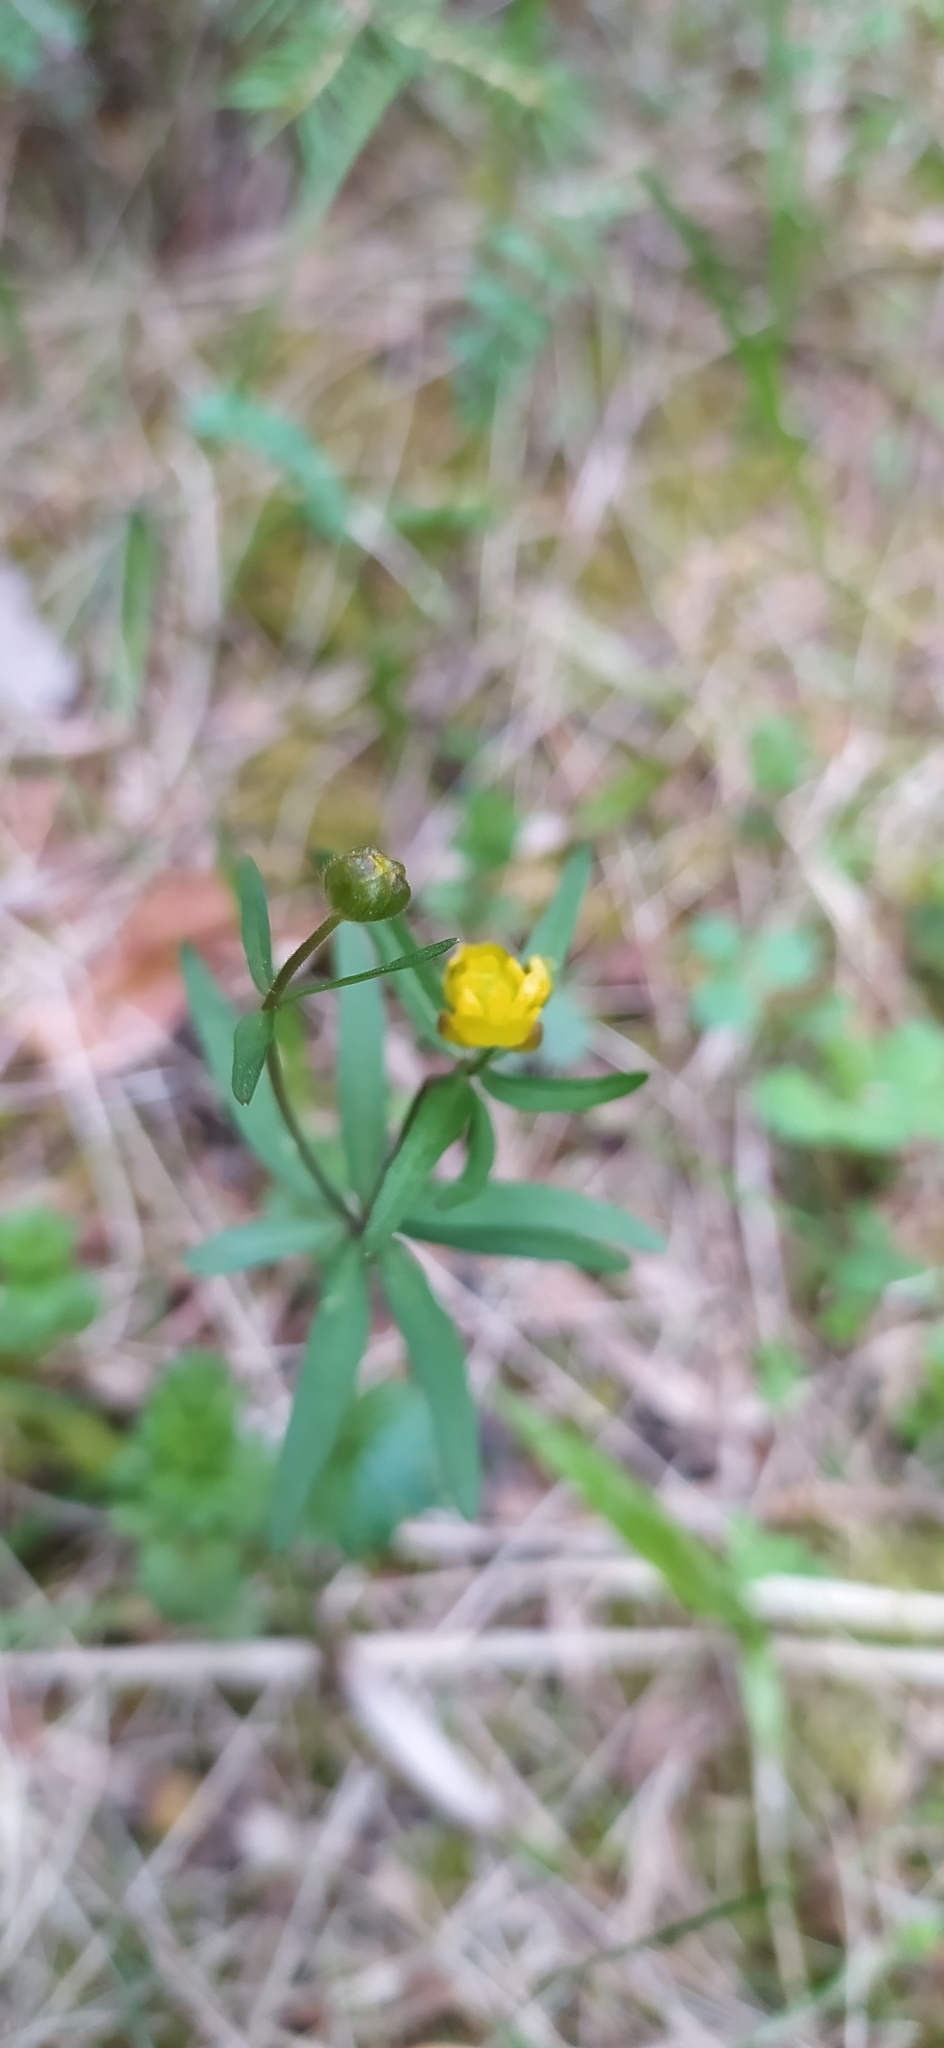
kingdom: Plantae
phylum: Tracheophyta
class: Magnoliopsida
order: Ranunculales
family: Ranunculaceae
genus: Ranunculus
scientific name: Ranunculus monophyllus
